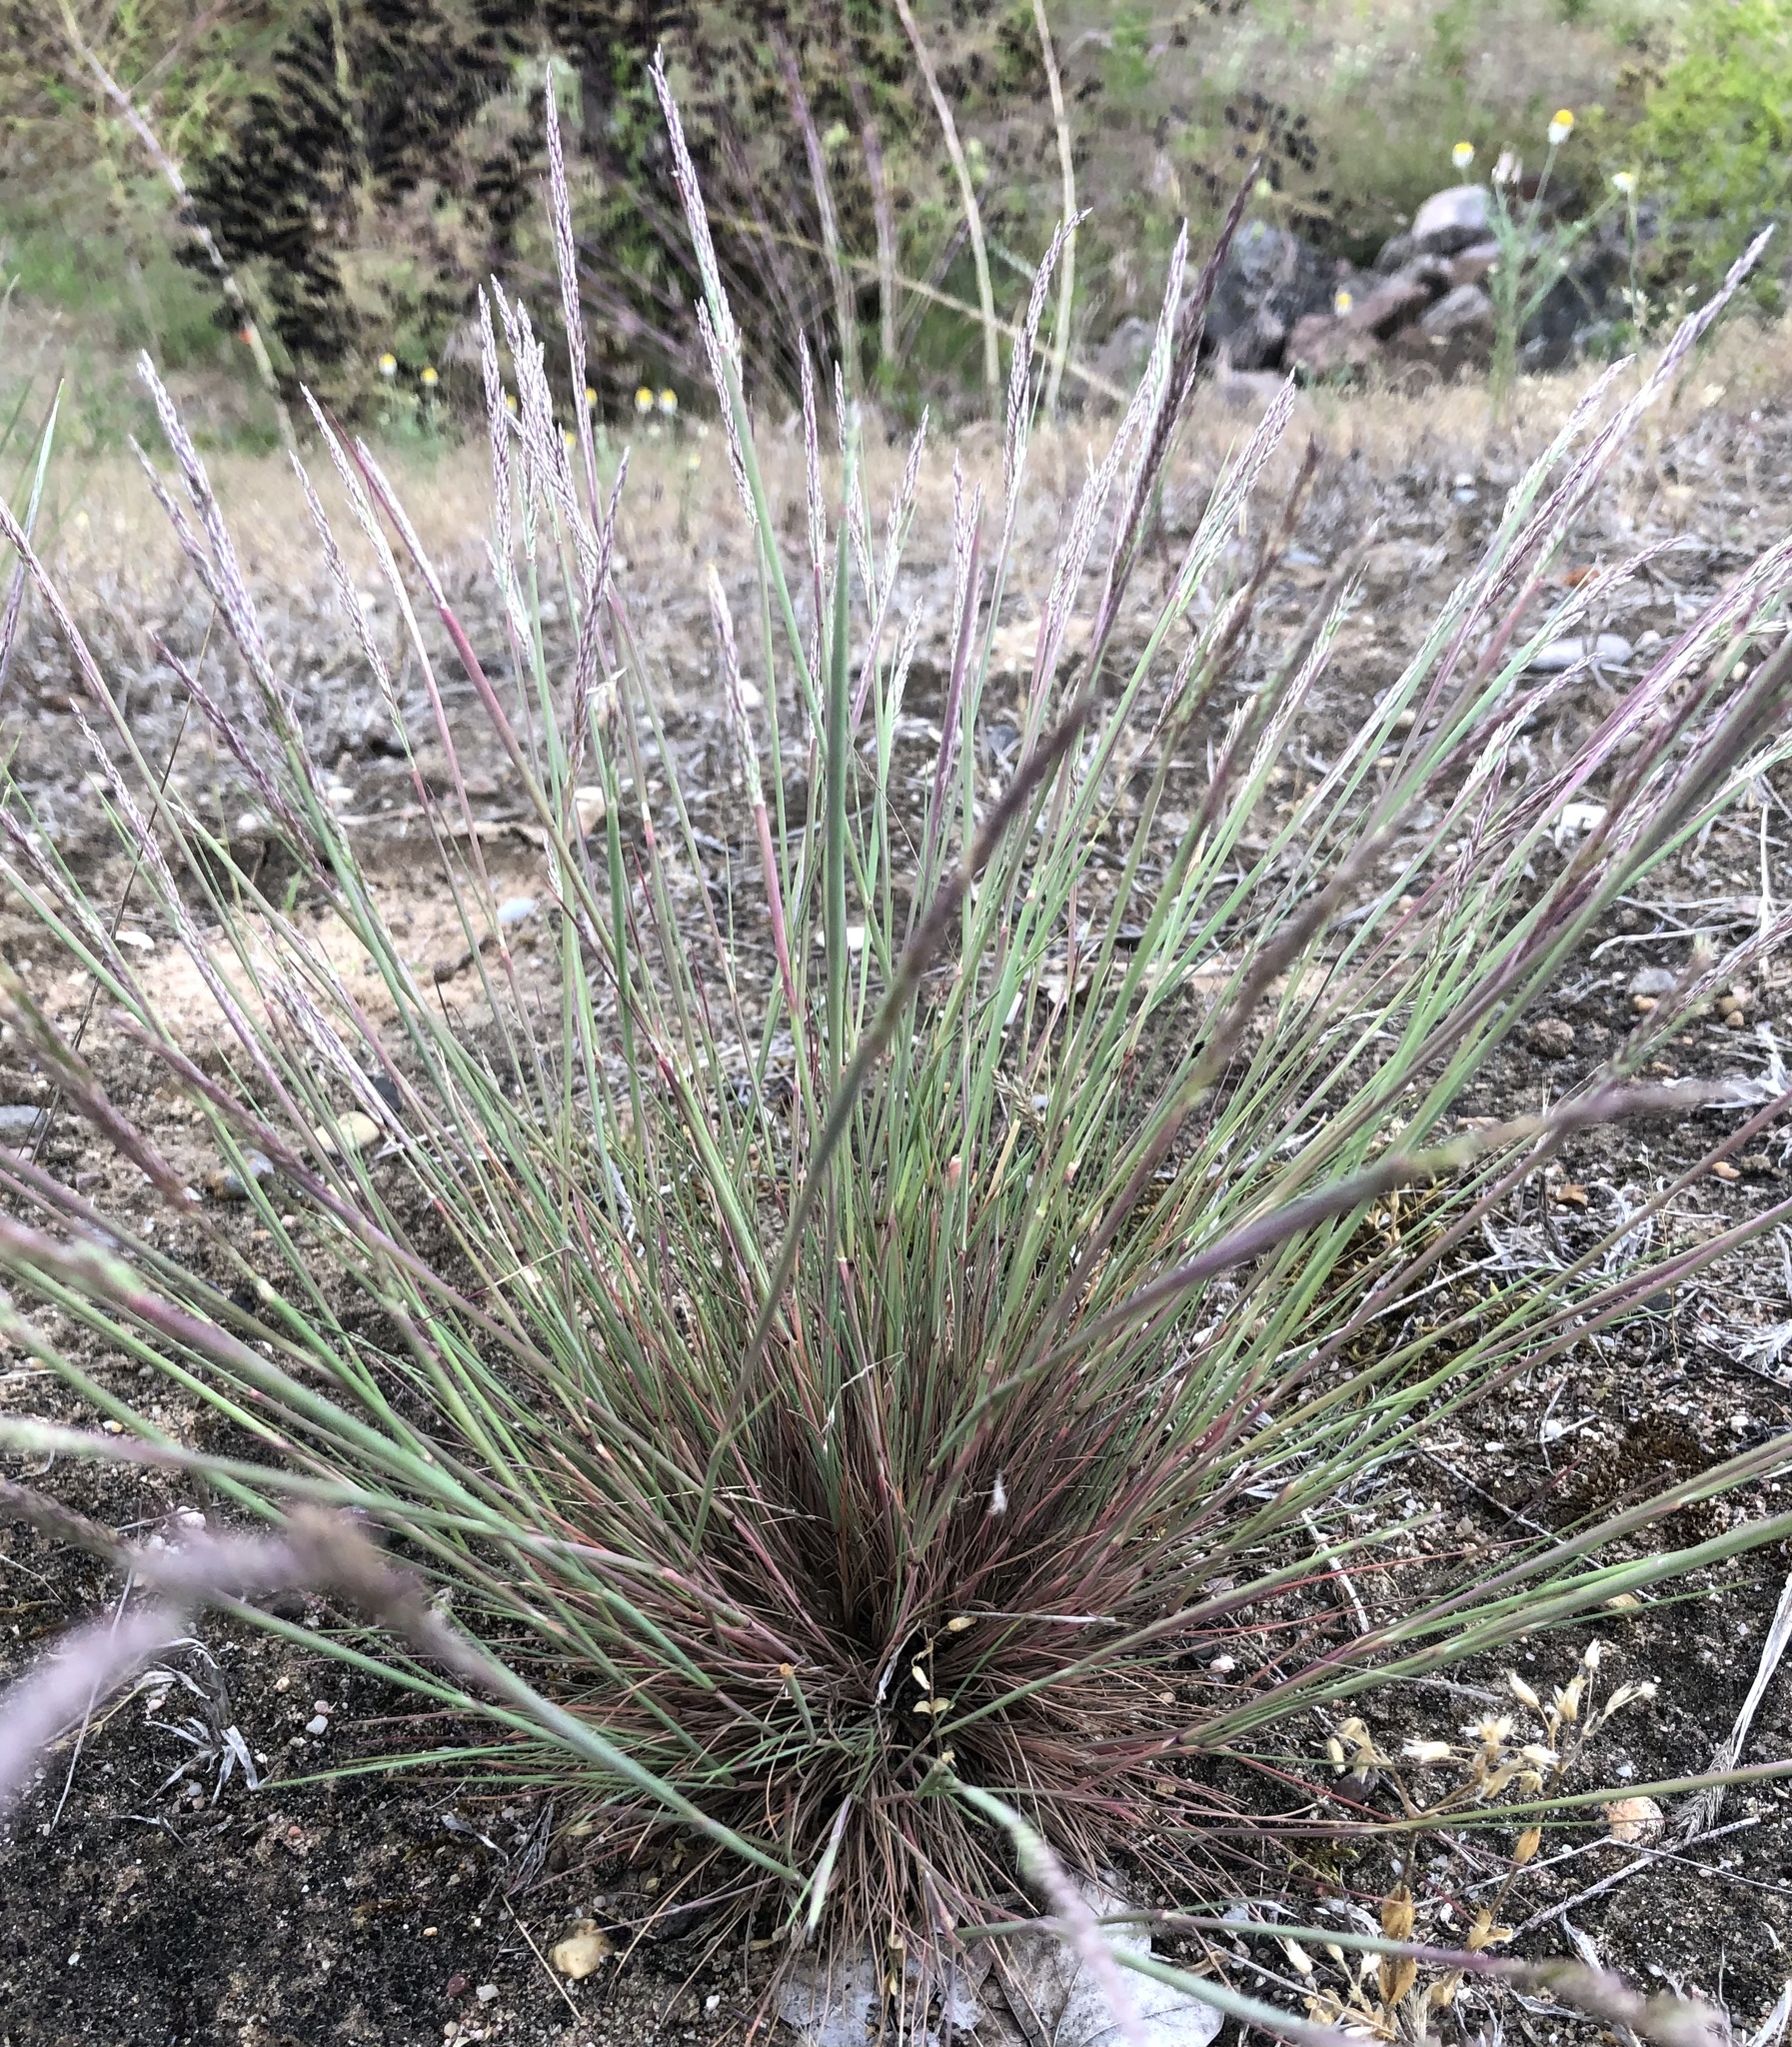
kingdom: Plantae
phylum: Tracheophyta
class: Liliopsida
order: Poales
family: Poaceae
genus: Corynephorus
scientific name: Corynephorus canescens
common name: Grey hair-grass
